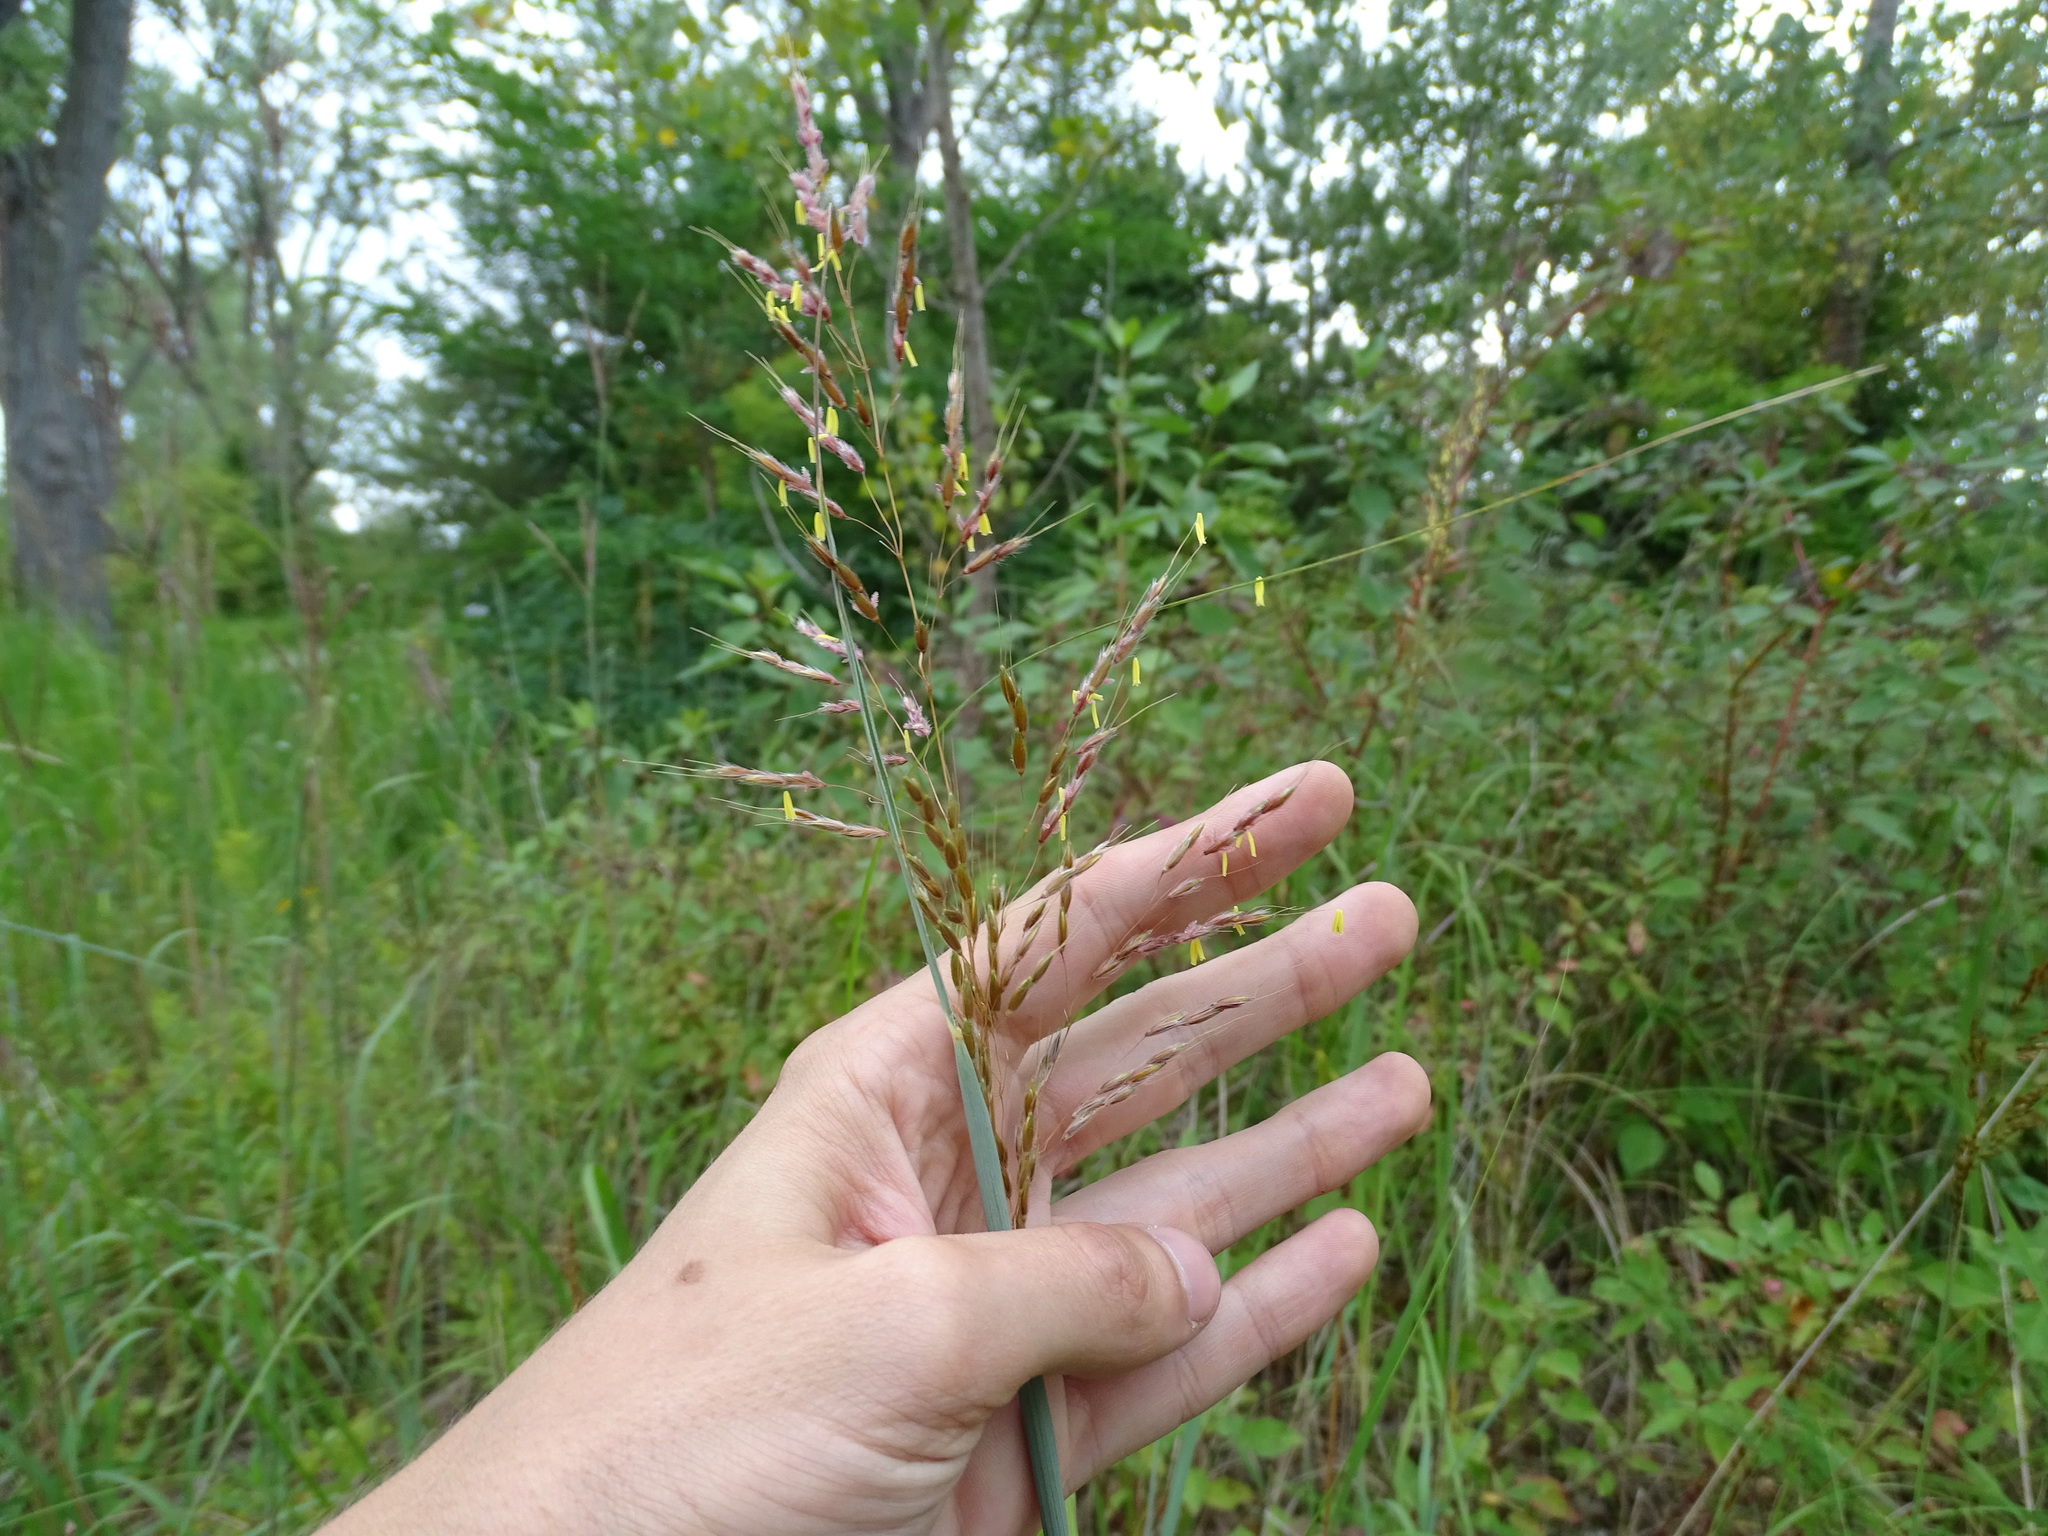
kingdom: Plantae
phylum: Tracheophyta
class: Liliopsida
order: Poales
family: Poaceae
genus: Sorghastrum
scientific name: Sorghastrum nutans
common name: Indian grass
